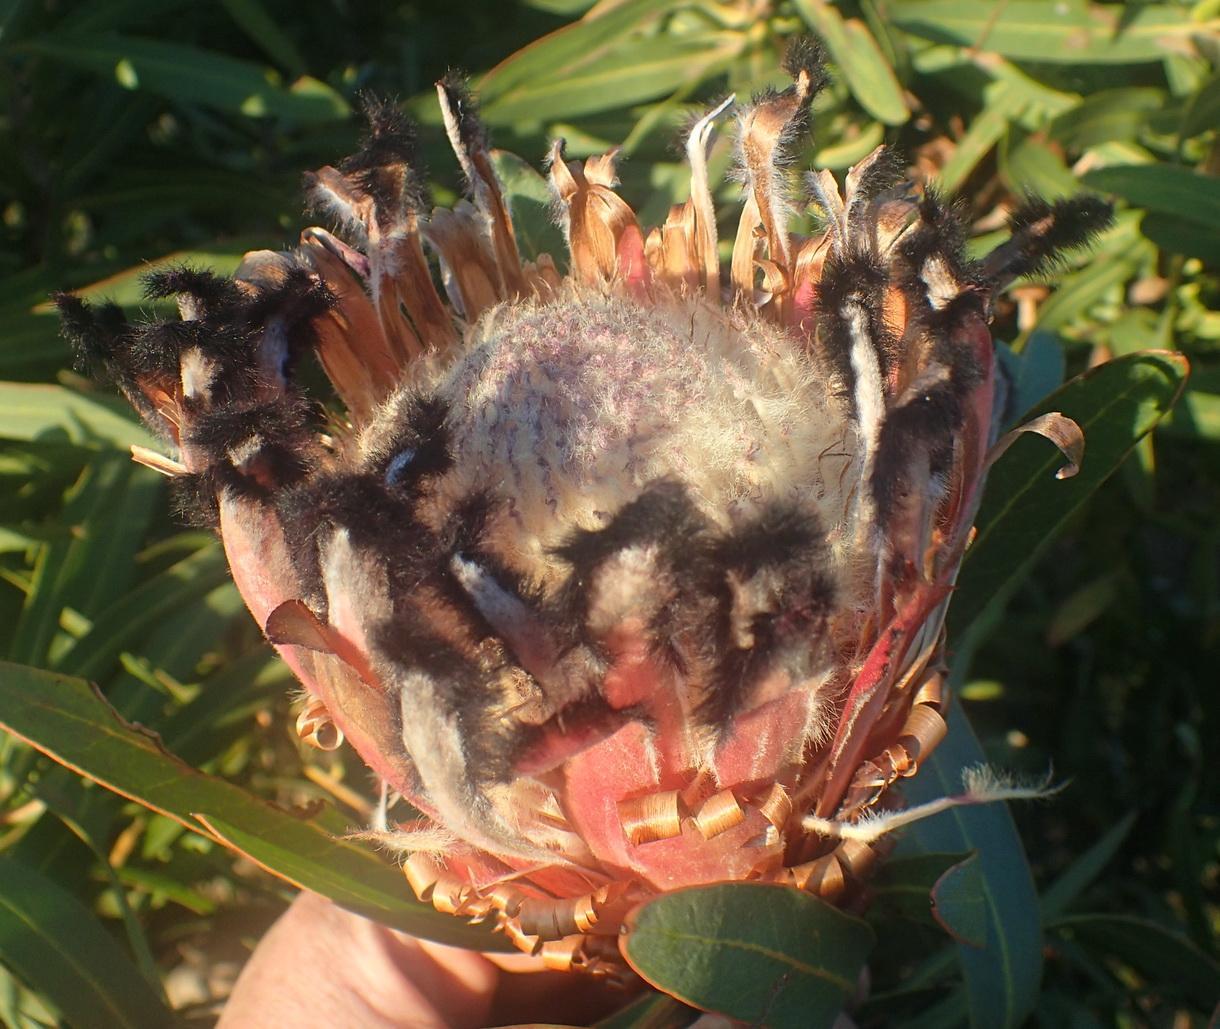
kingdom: Plantae
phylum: Tracheophyta
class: Magnoliopsida
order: Proteales
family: Proteaceae
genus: Protea
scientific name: Protea neriifolia
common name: Blue sugarbush
